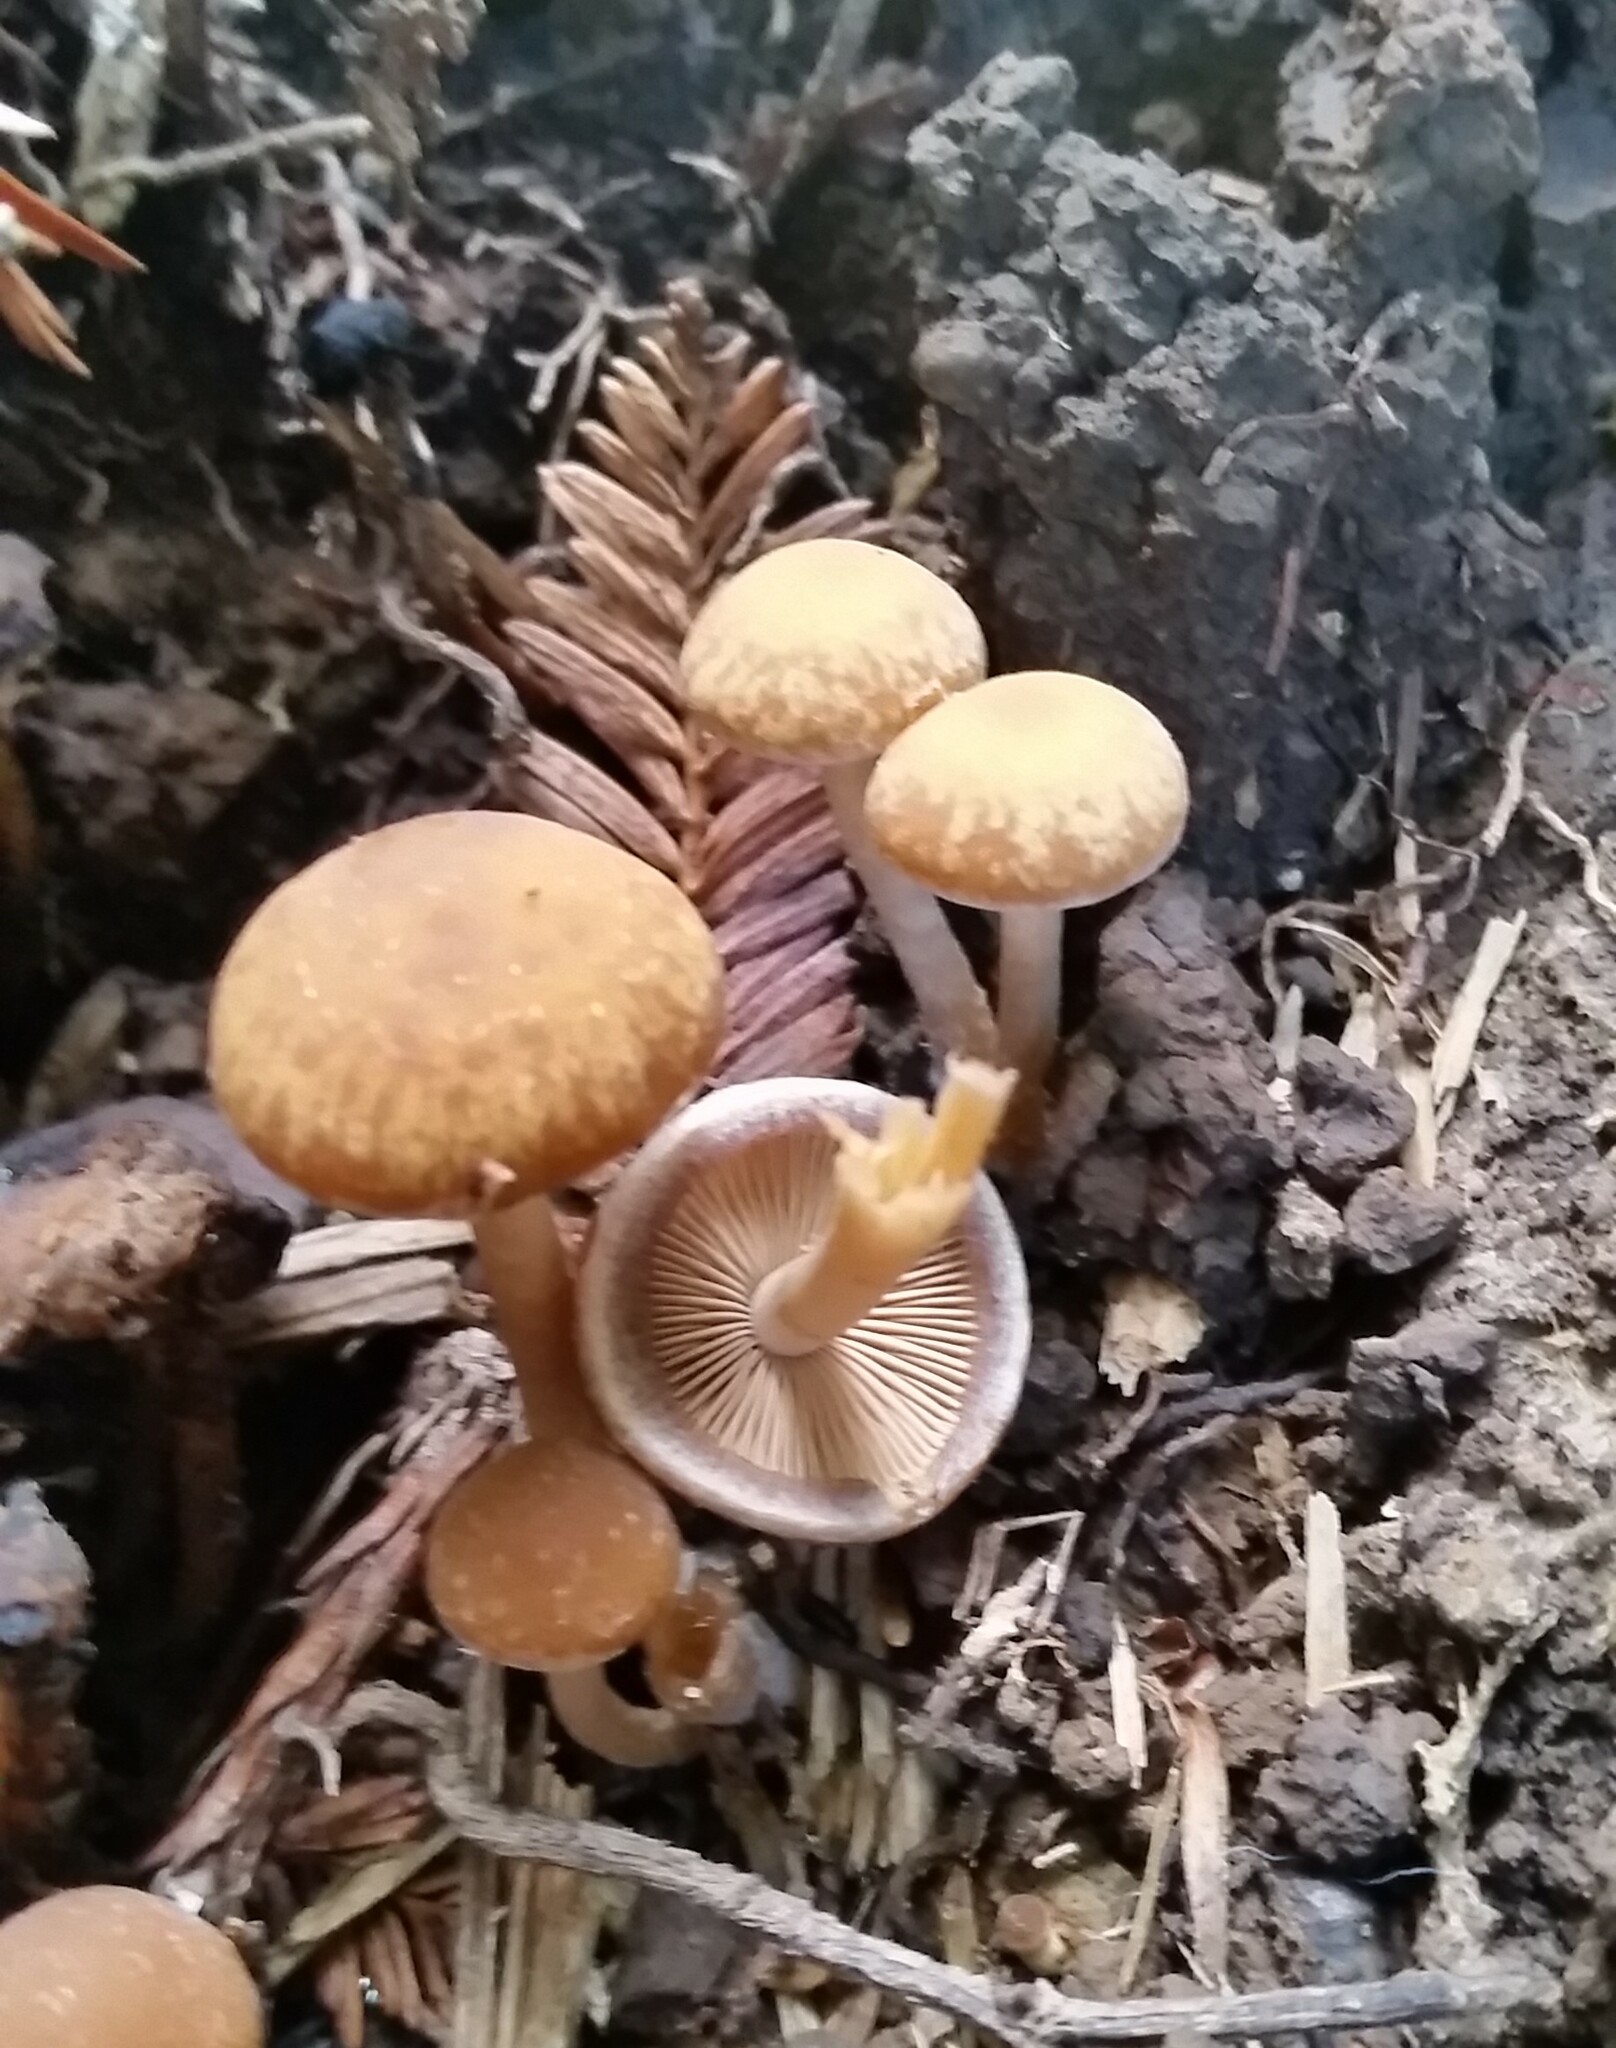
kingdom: Fungi
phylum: Basidiomycota
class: Agaricomycetes
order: Agaricales
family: Psathyrellaceae
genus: Psathyrella
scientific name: Psathyrella piluliformis
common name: Common stump brittlestem
